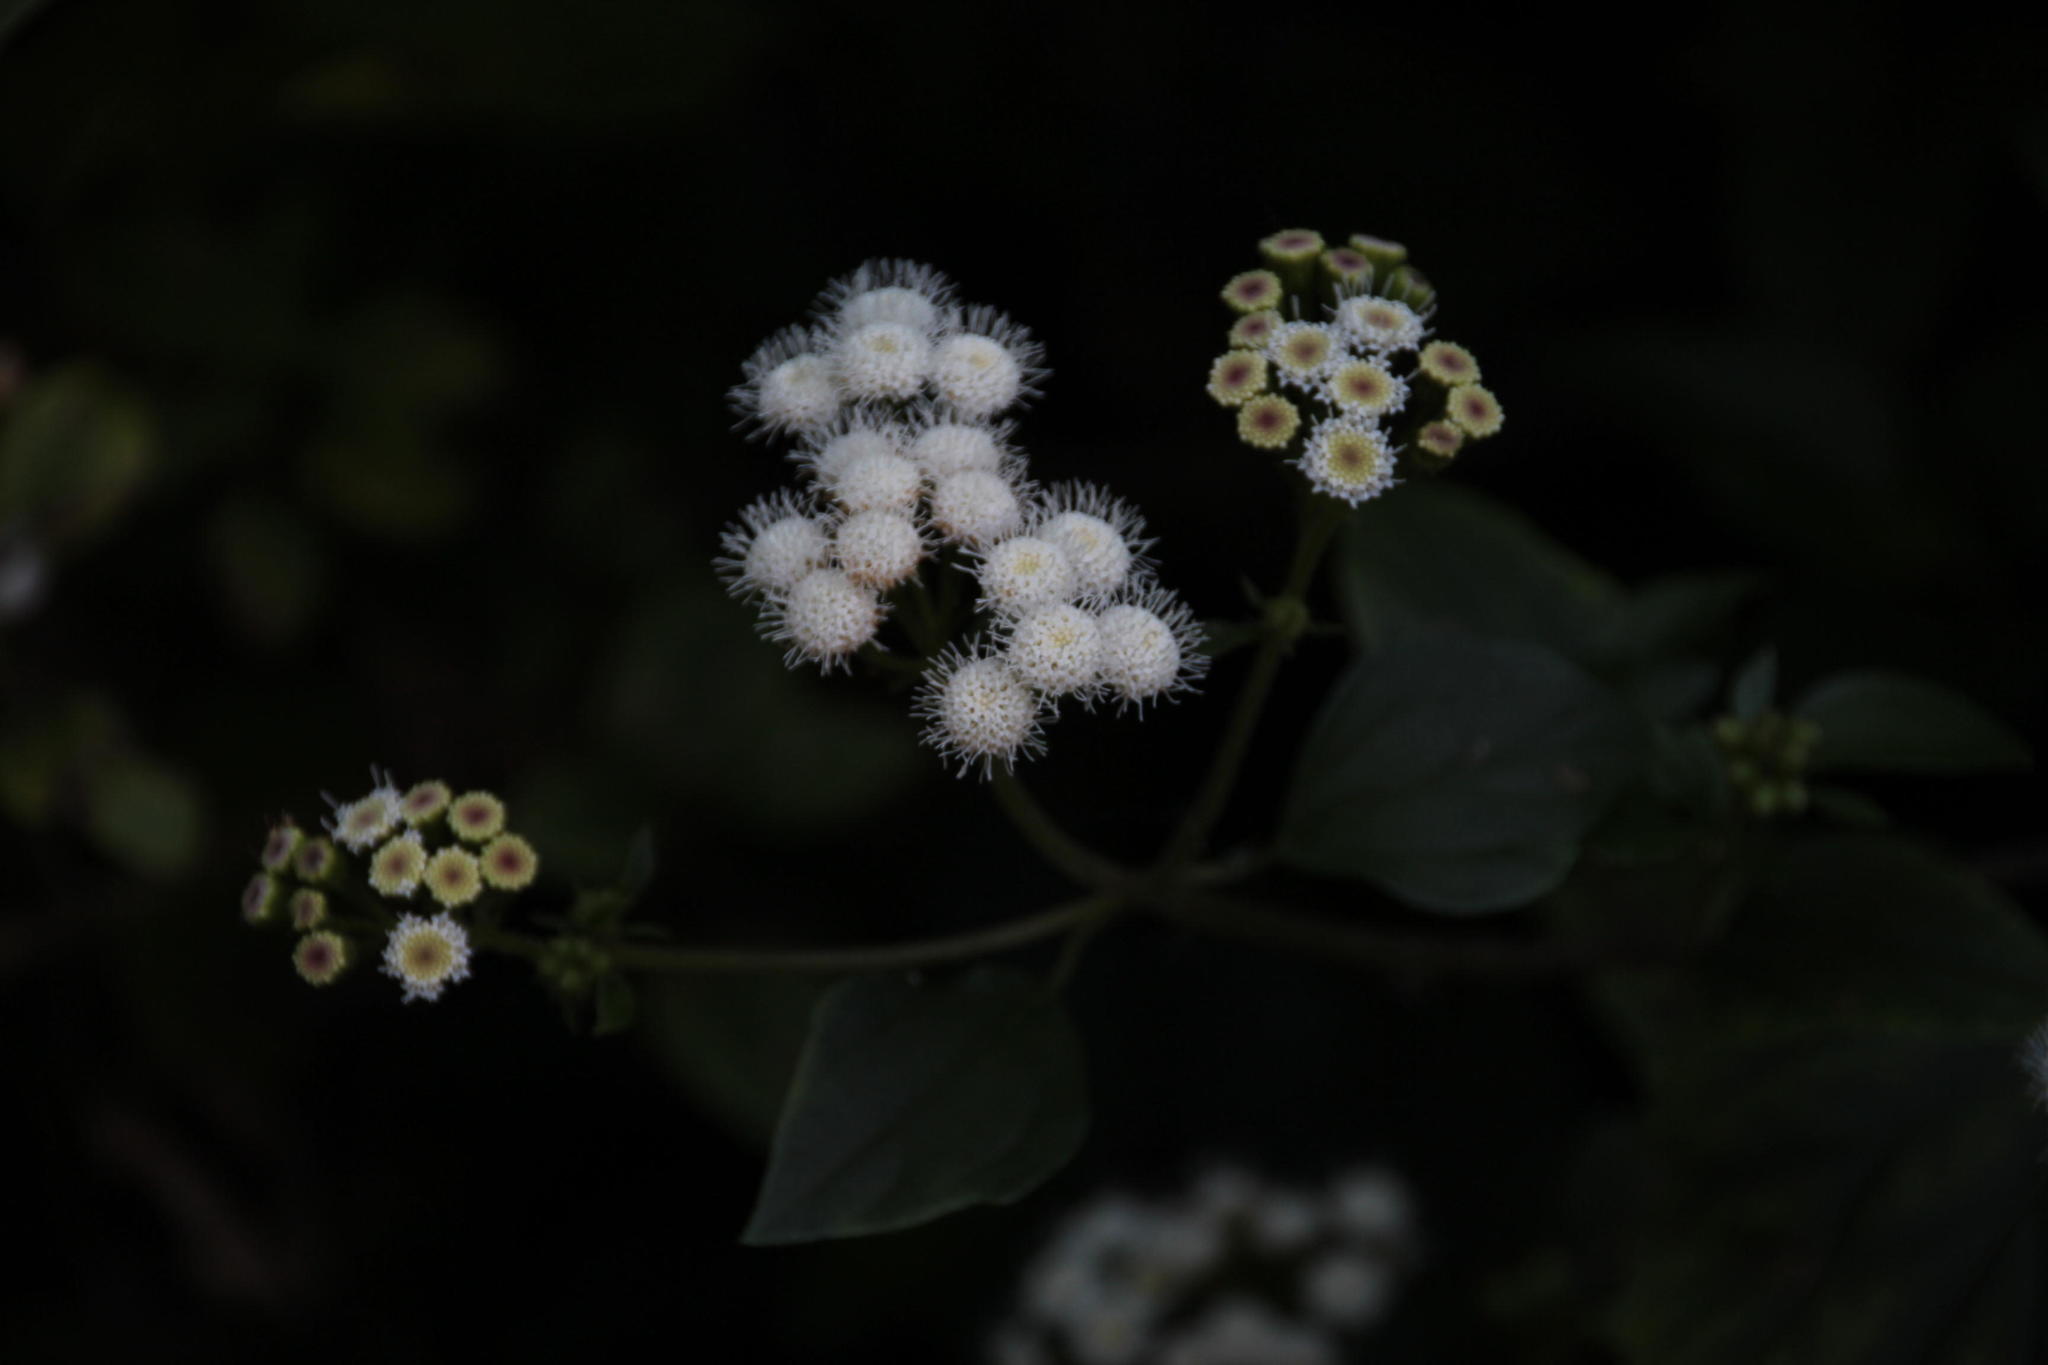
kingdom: Plantae
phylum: Tracheophyta
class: Magnoliopsida
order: Asterales
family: Asteraceae
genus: Ageratina
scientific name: Ageratina adenophora
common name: Sticky snakeroot
